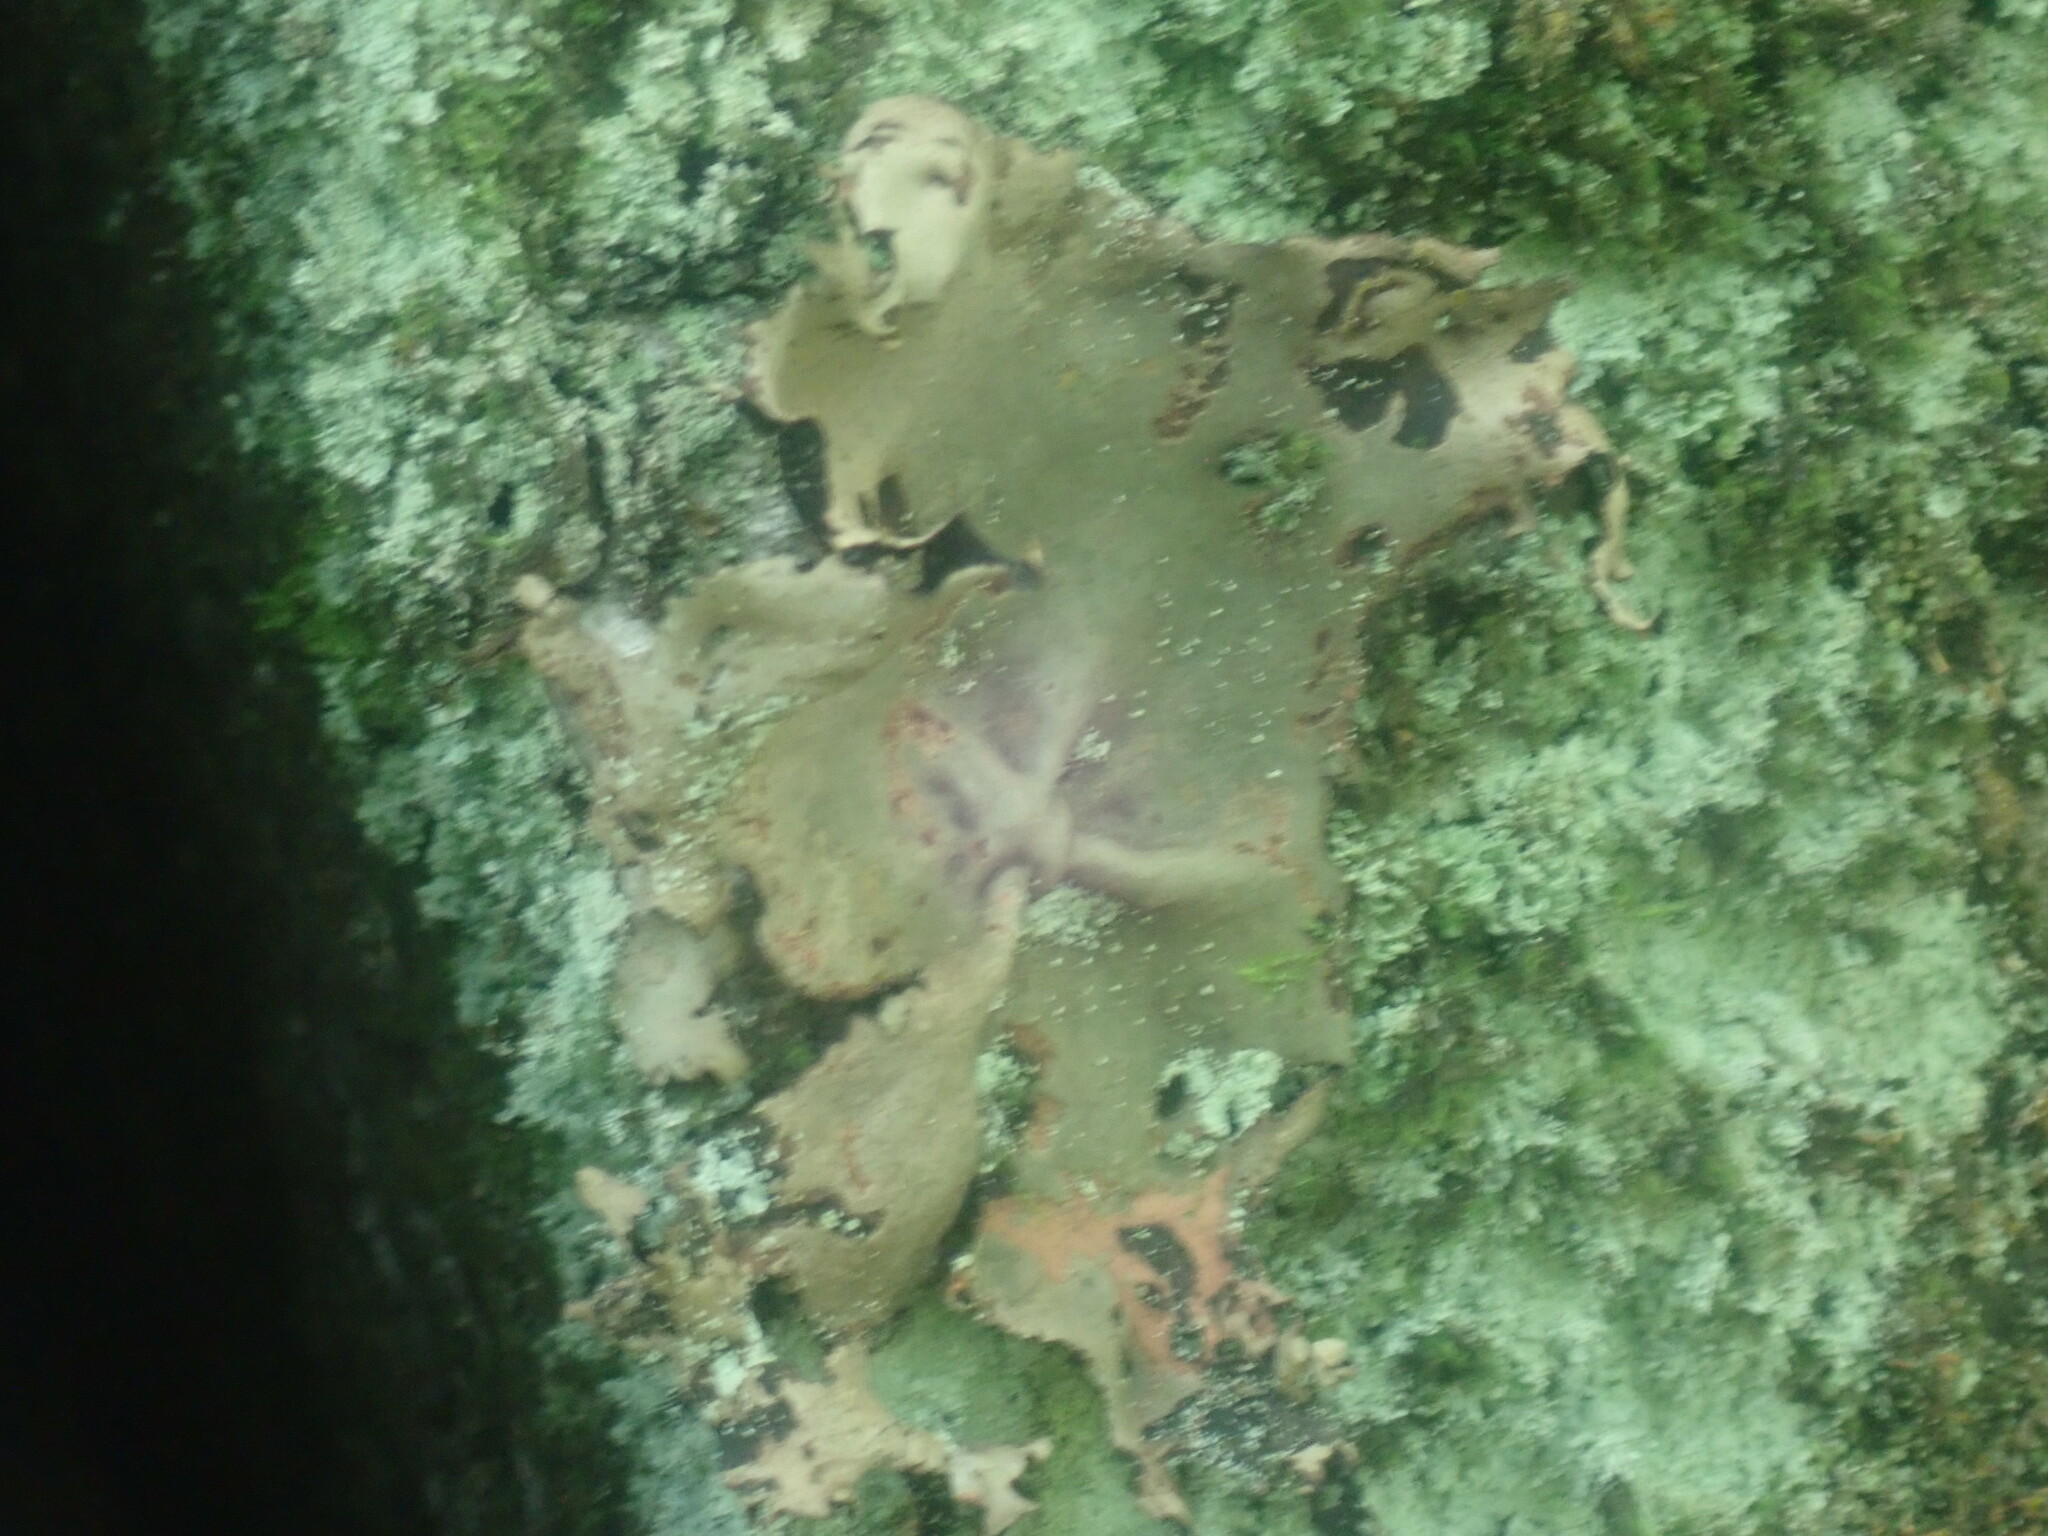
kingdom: Fungi
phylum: Ascomycota
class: Lecanoromycetes
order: Umbilicariales
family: Umbilicariaceae
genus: Umbilicaria
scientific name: Umbilicaria mammulata
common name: Smooth rock tripe
